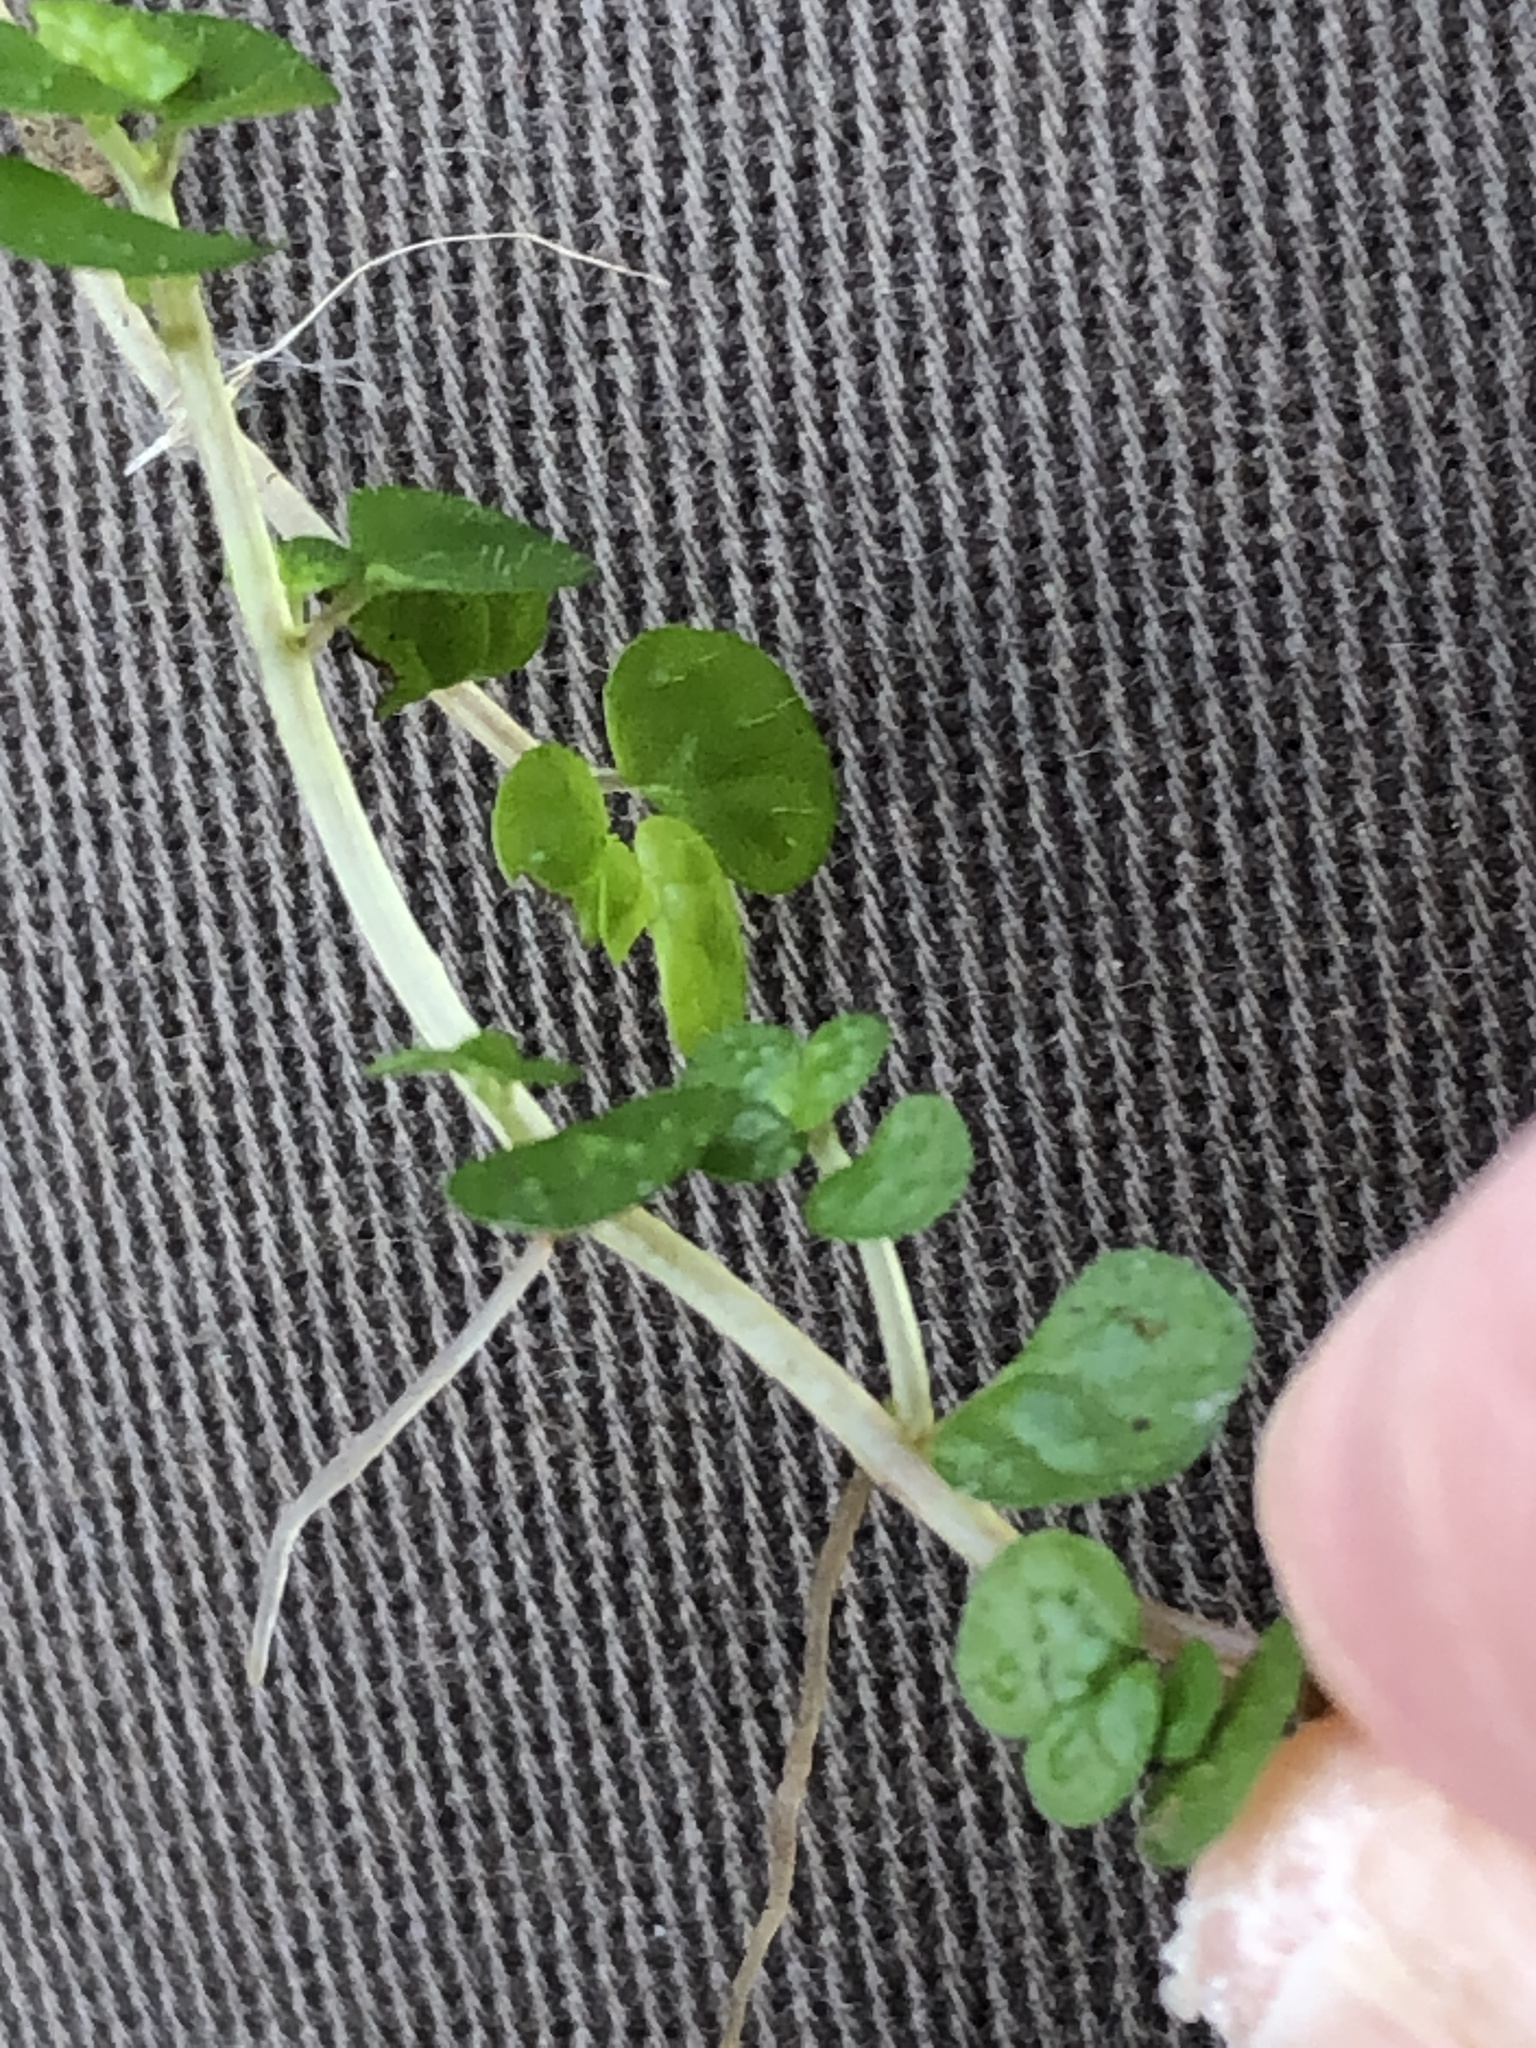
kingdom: Plantae
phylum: Tracheophyta
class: Magnoliopsida
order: Rosales
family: Urticaceae
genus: Soleirolia
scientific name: Soleirolia soleirolii
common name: Mind-your-own-business
